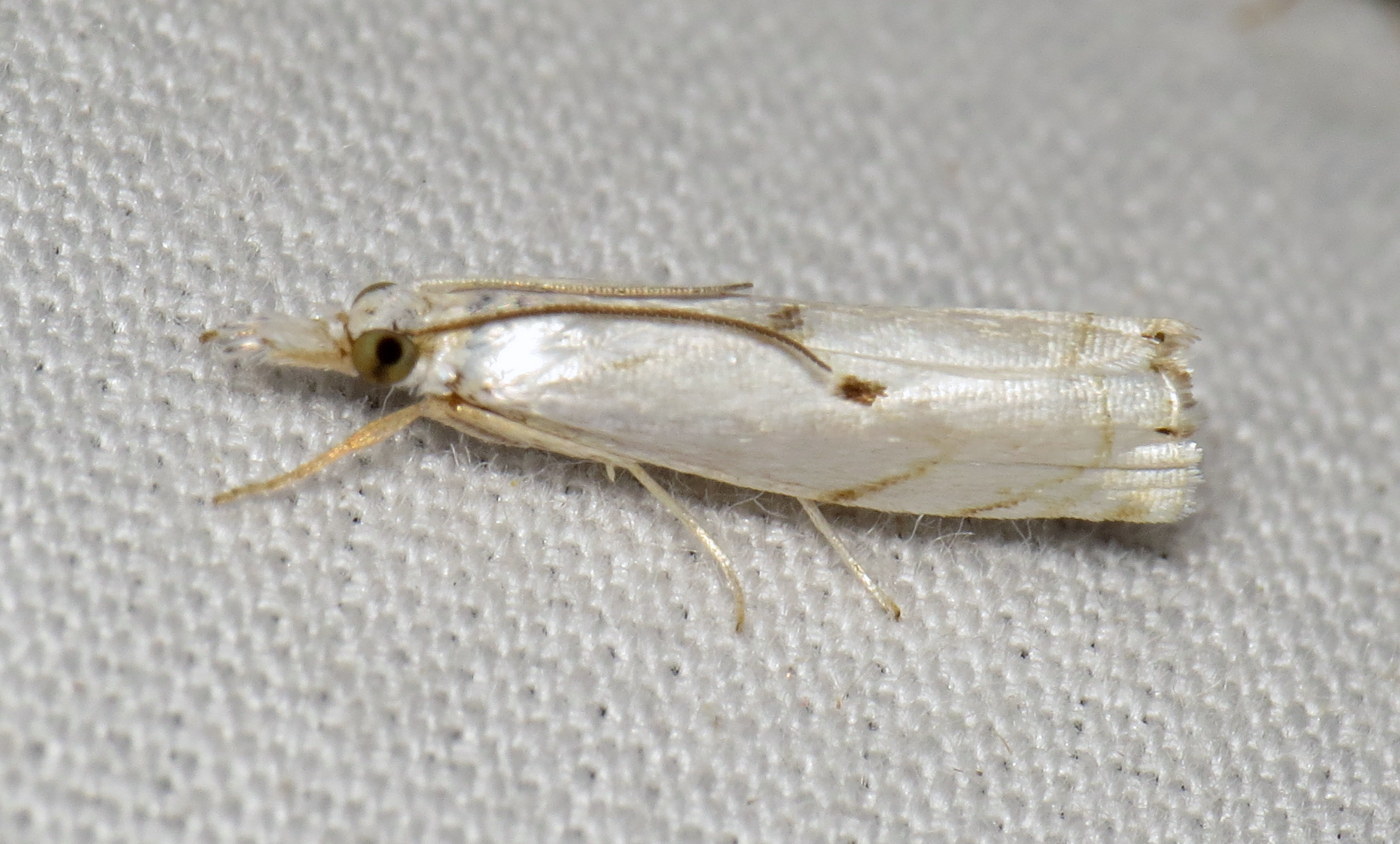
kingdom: Animalia
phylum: Arthropoda
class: Insecta
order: Lepidoptera
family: Crambidae
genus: Microcrambus
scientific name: Microcrambus biguttellus
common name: Gold-stripe grass-veneer moth
